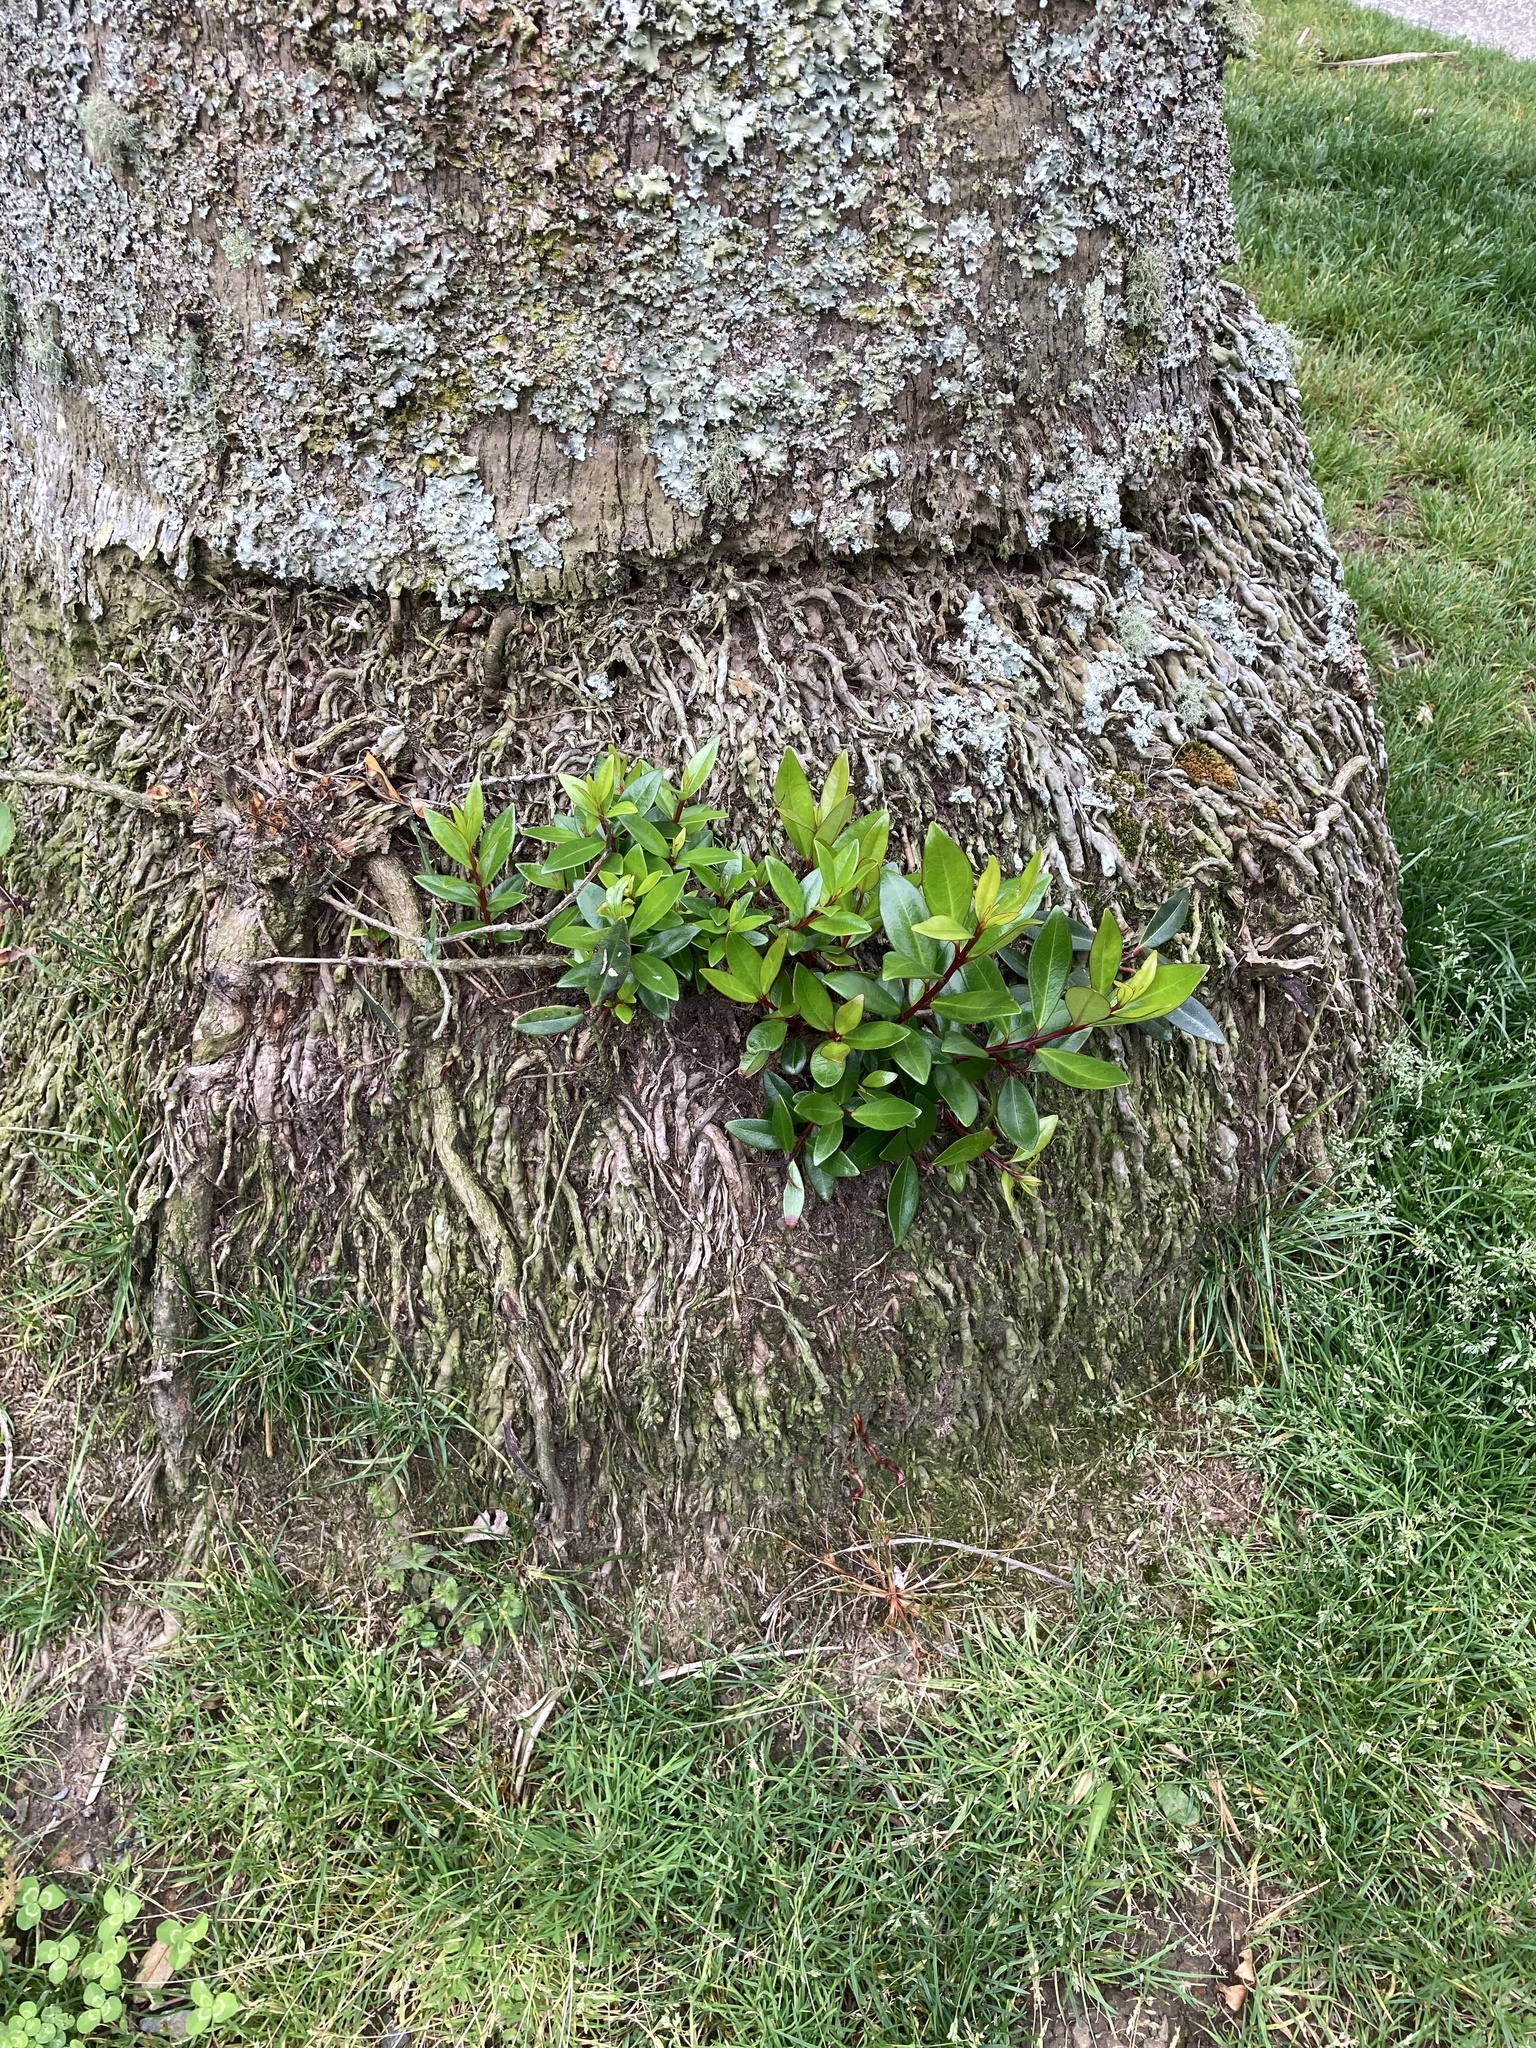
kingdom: Plantae
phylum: Tracheophyta
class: Magnoliopsida
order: Myrtales
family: Myrtaceae
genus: Metrosideros
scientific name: Metrosideros excelsa
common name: New zealand christmastree
